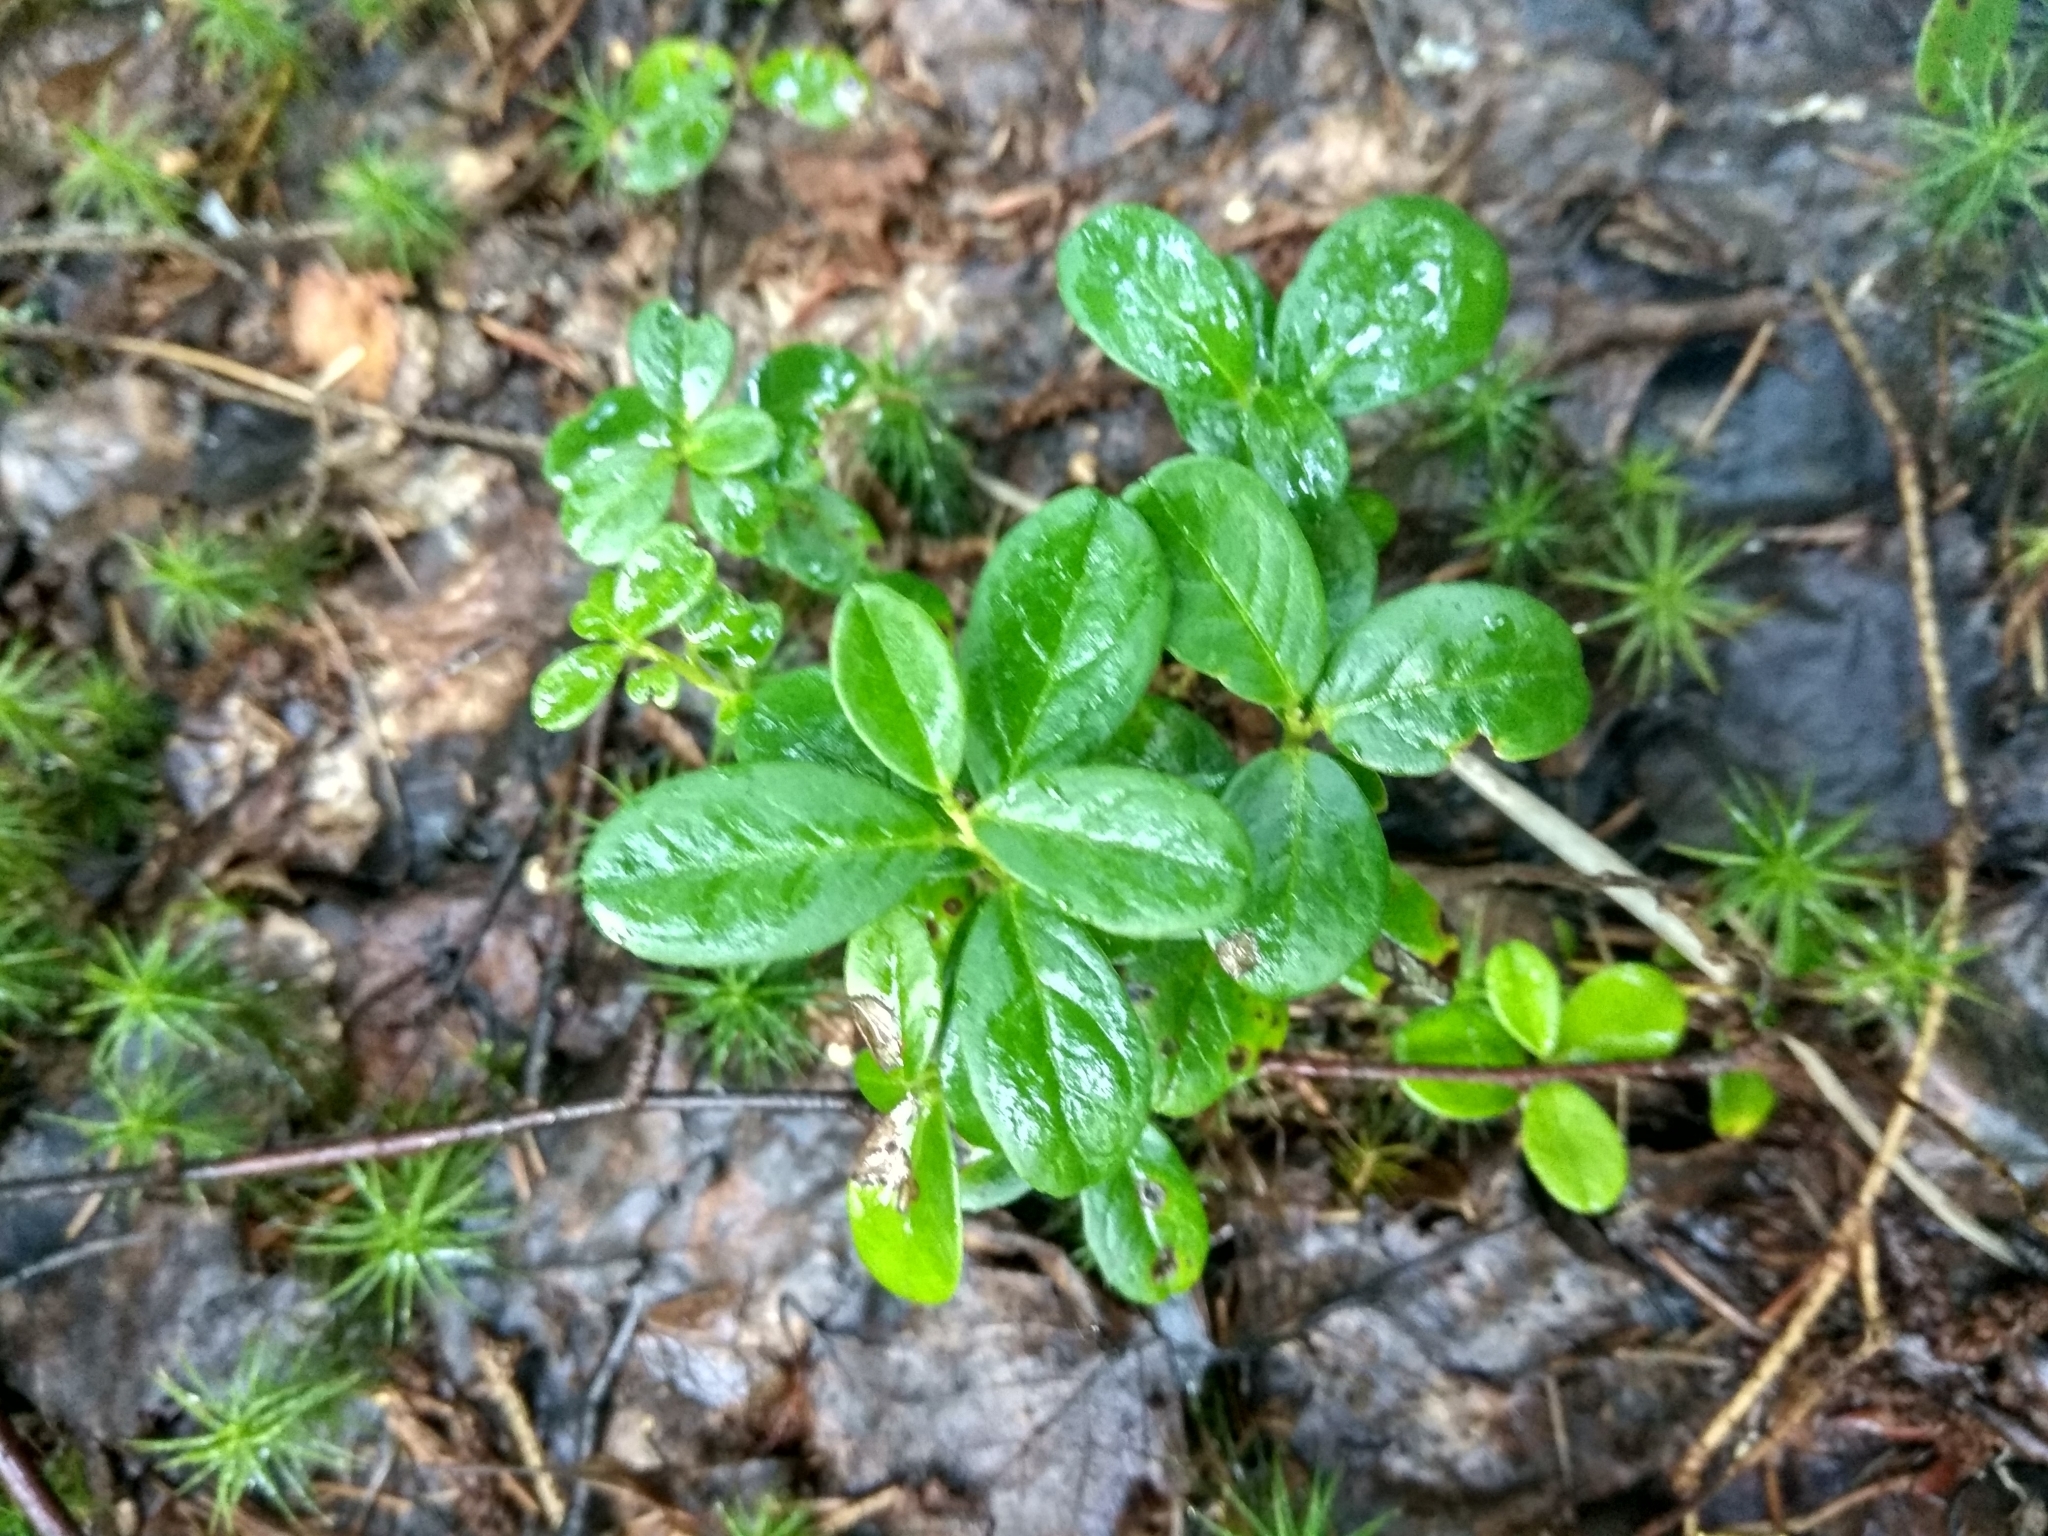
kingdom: Plantae
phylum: Tracheophyta
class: Magnoliopsida
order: Ericales
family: Ericaceae
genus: Vaccinium
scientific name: Vaccinium vitis-idaea
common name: Cowberry
